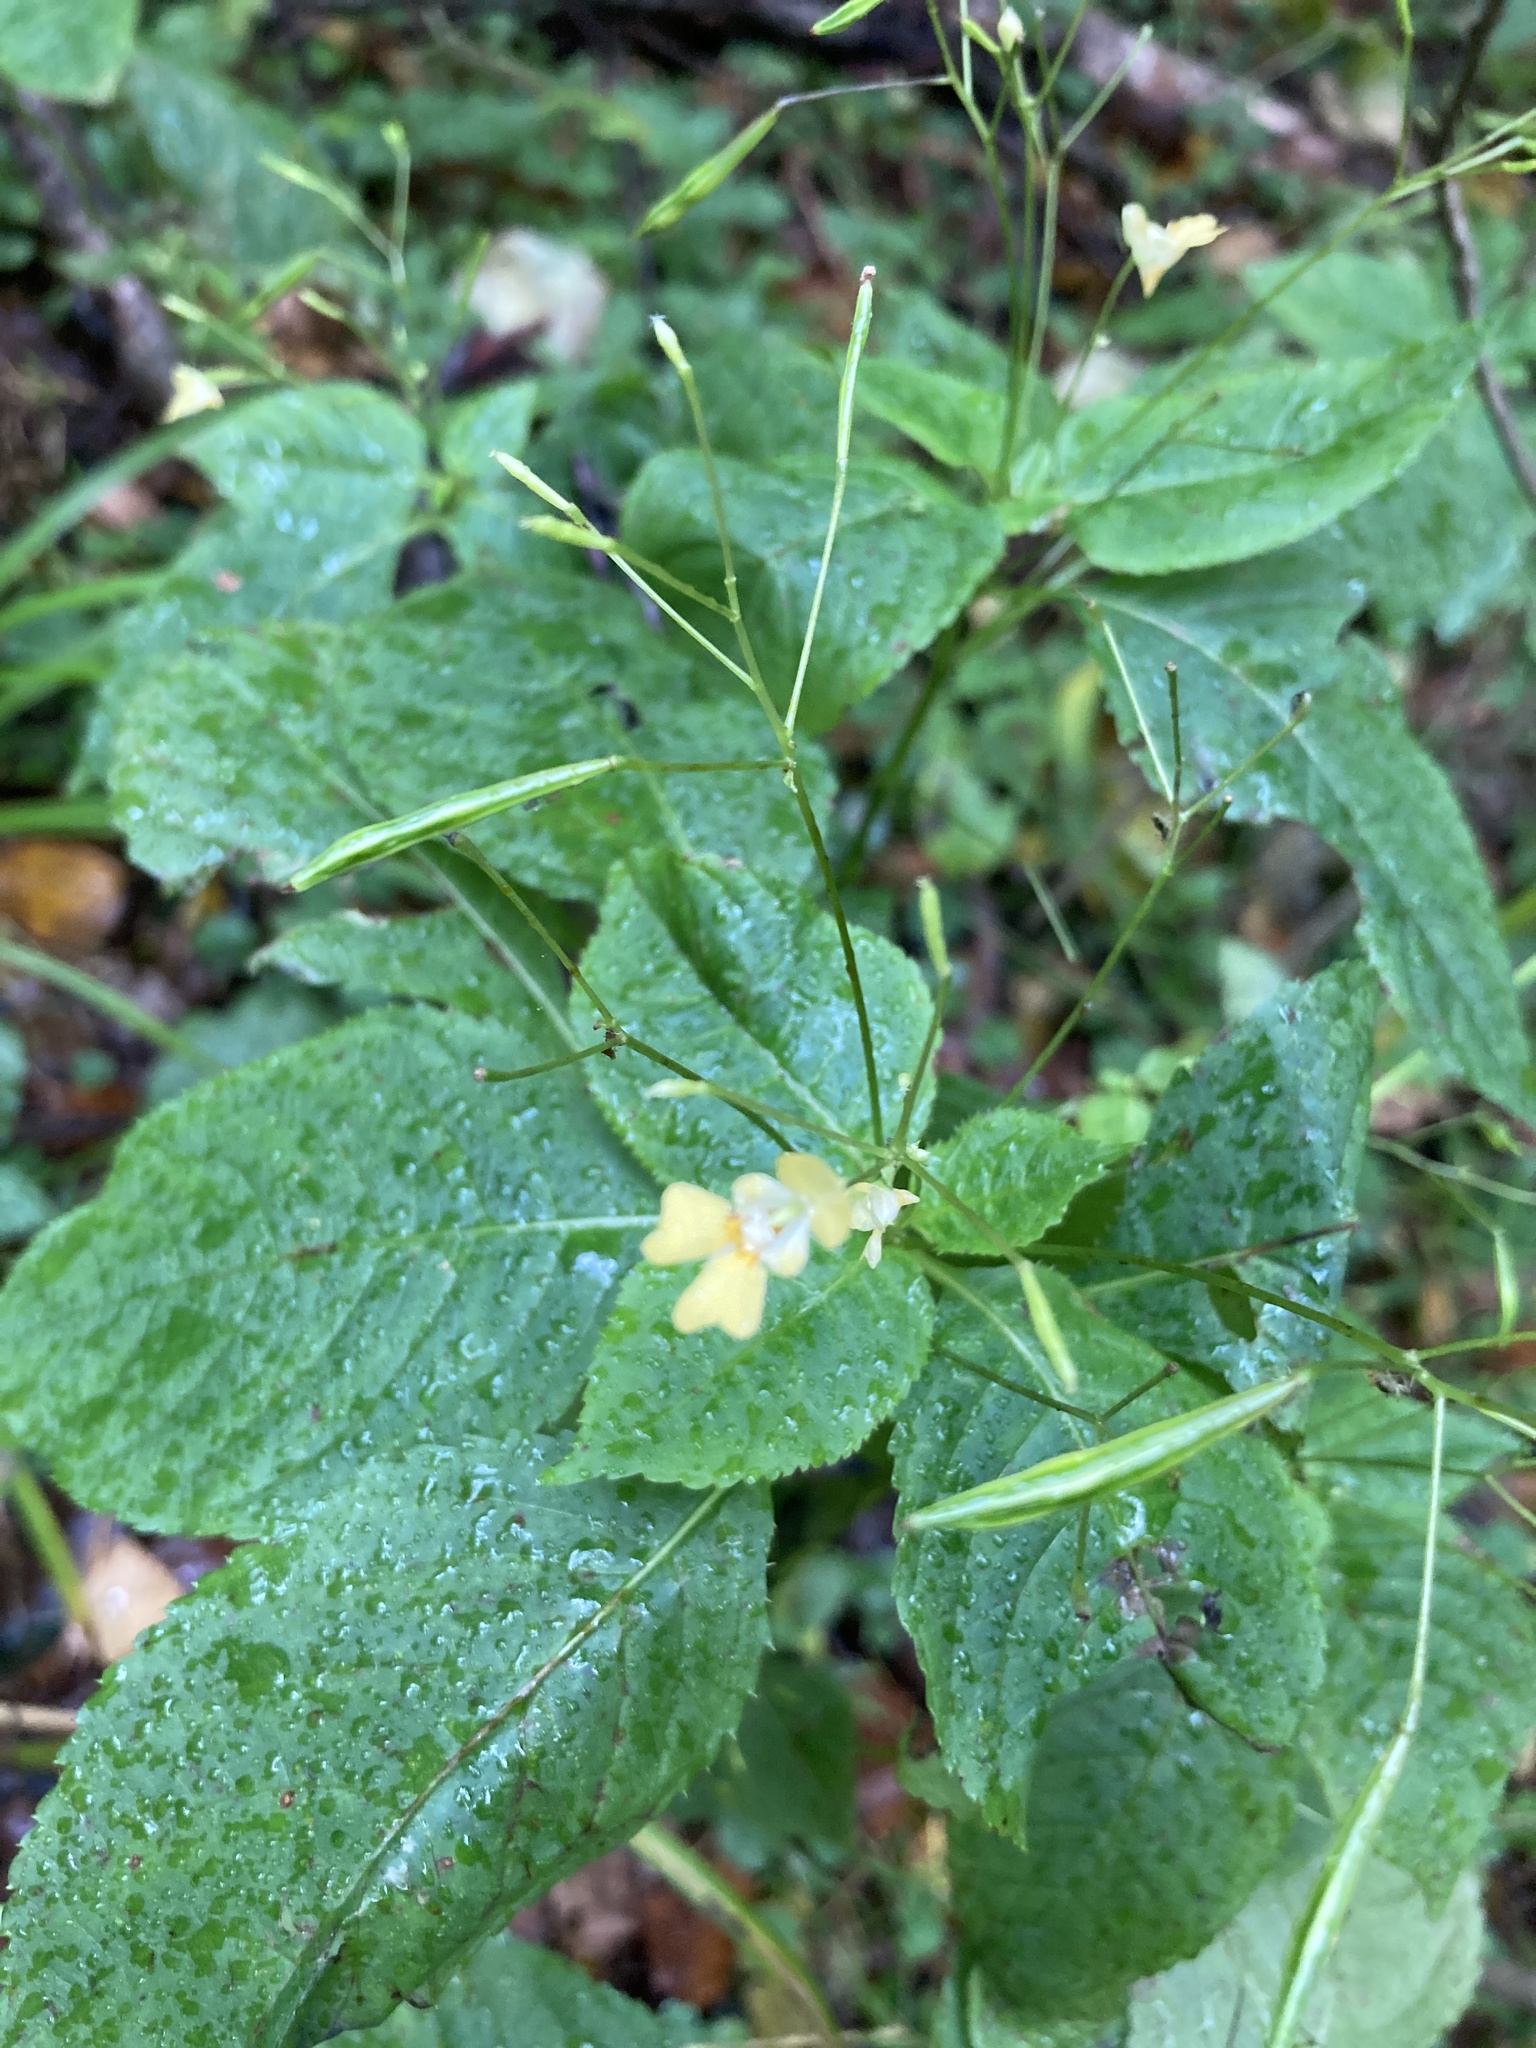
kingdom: Plantae
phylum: Tracheophyta
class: Magnoliopsida
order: Ericales
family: Balsaminaceae
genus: Impatiens
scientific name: Impatiens parviflora
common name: Small balsam
